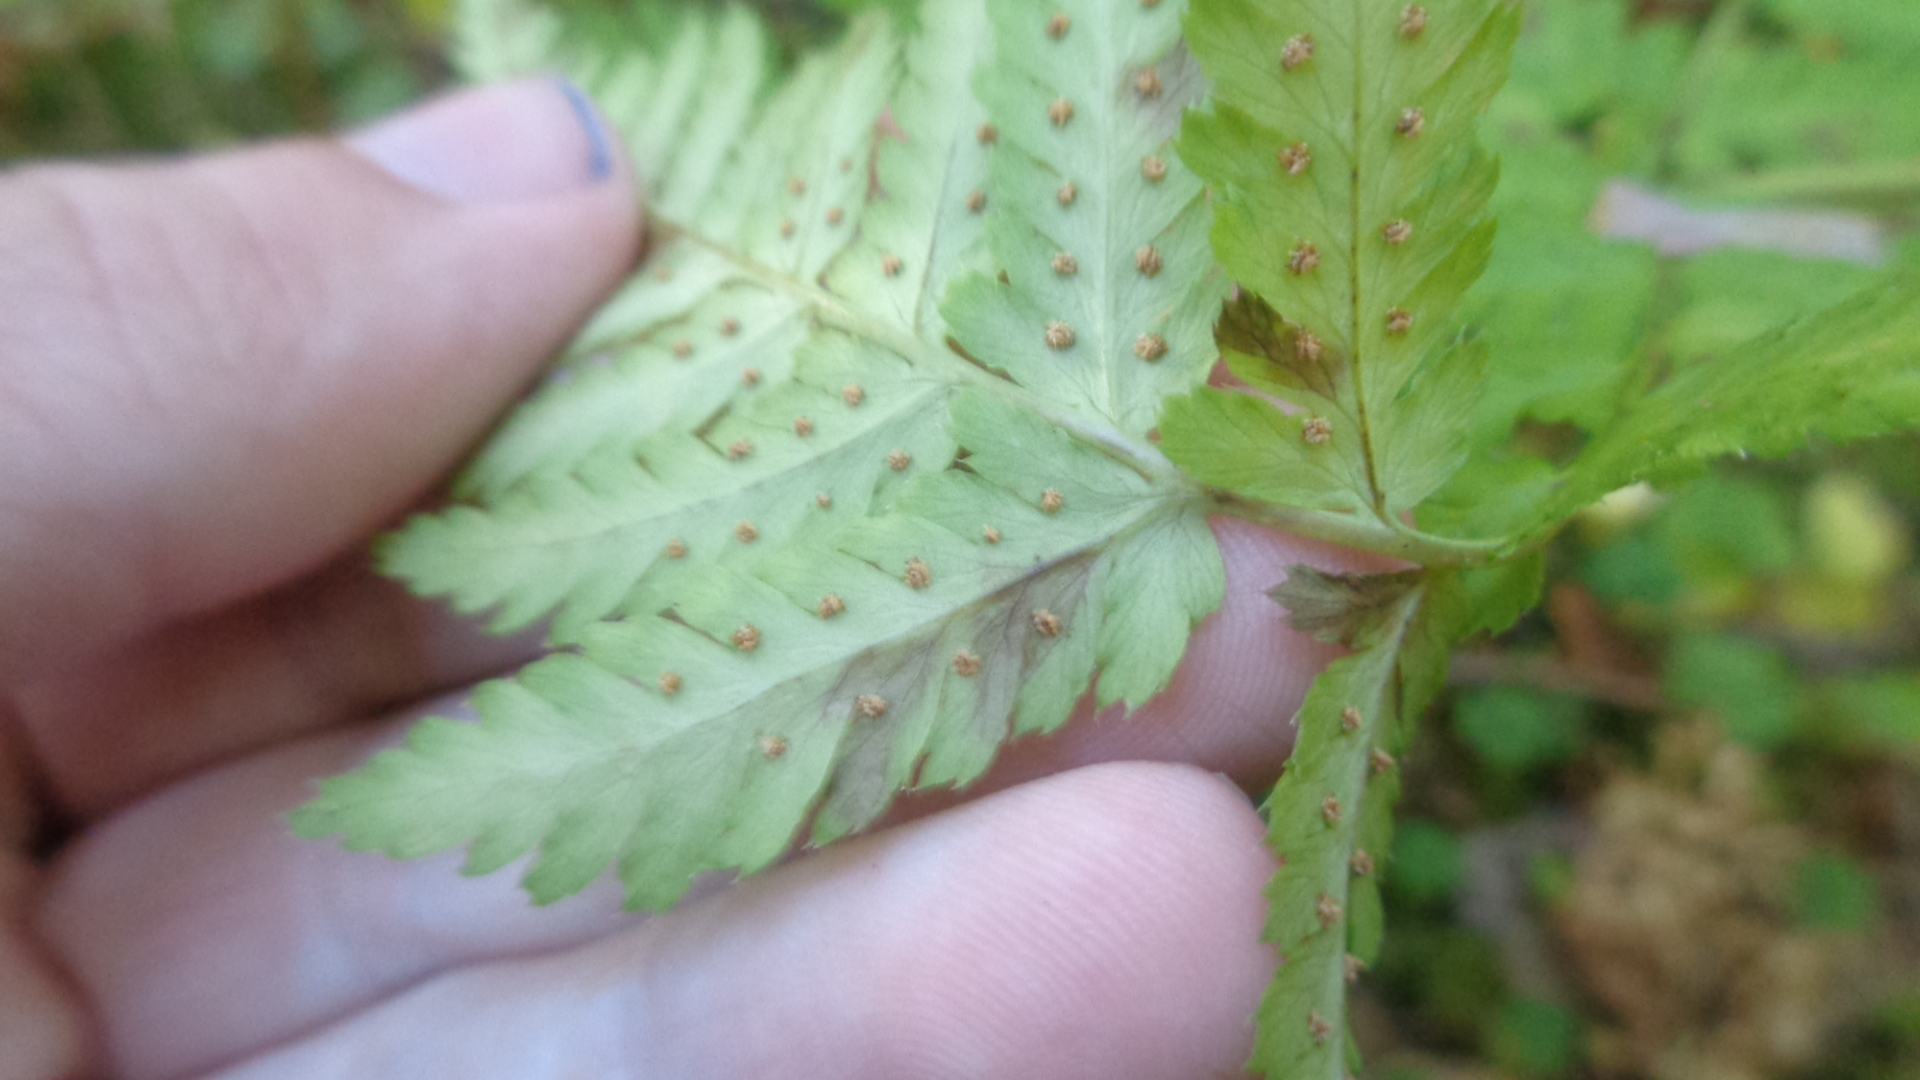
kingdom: Plantae
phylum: Tracheophyta
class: Polypodiopsida
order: Polypodiales
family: Dryopteridaceae
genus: Dryopteris
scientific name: Dryopteris expansa
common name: Northern buckler fern
